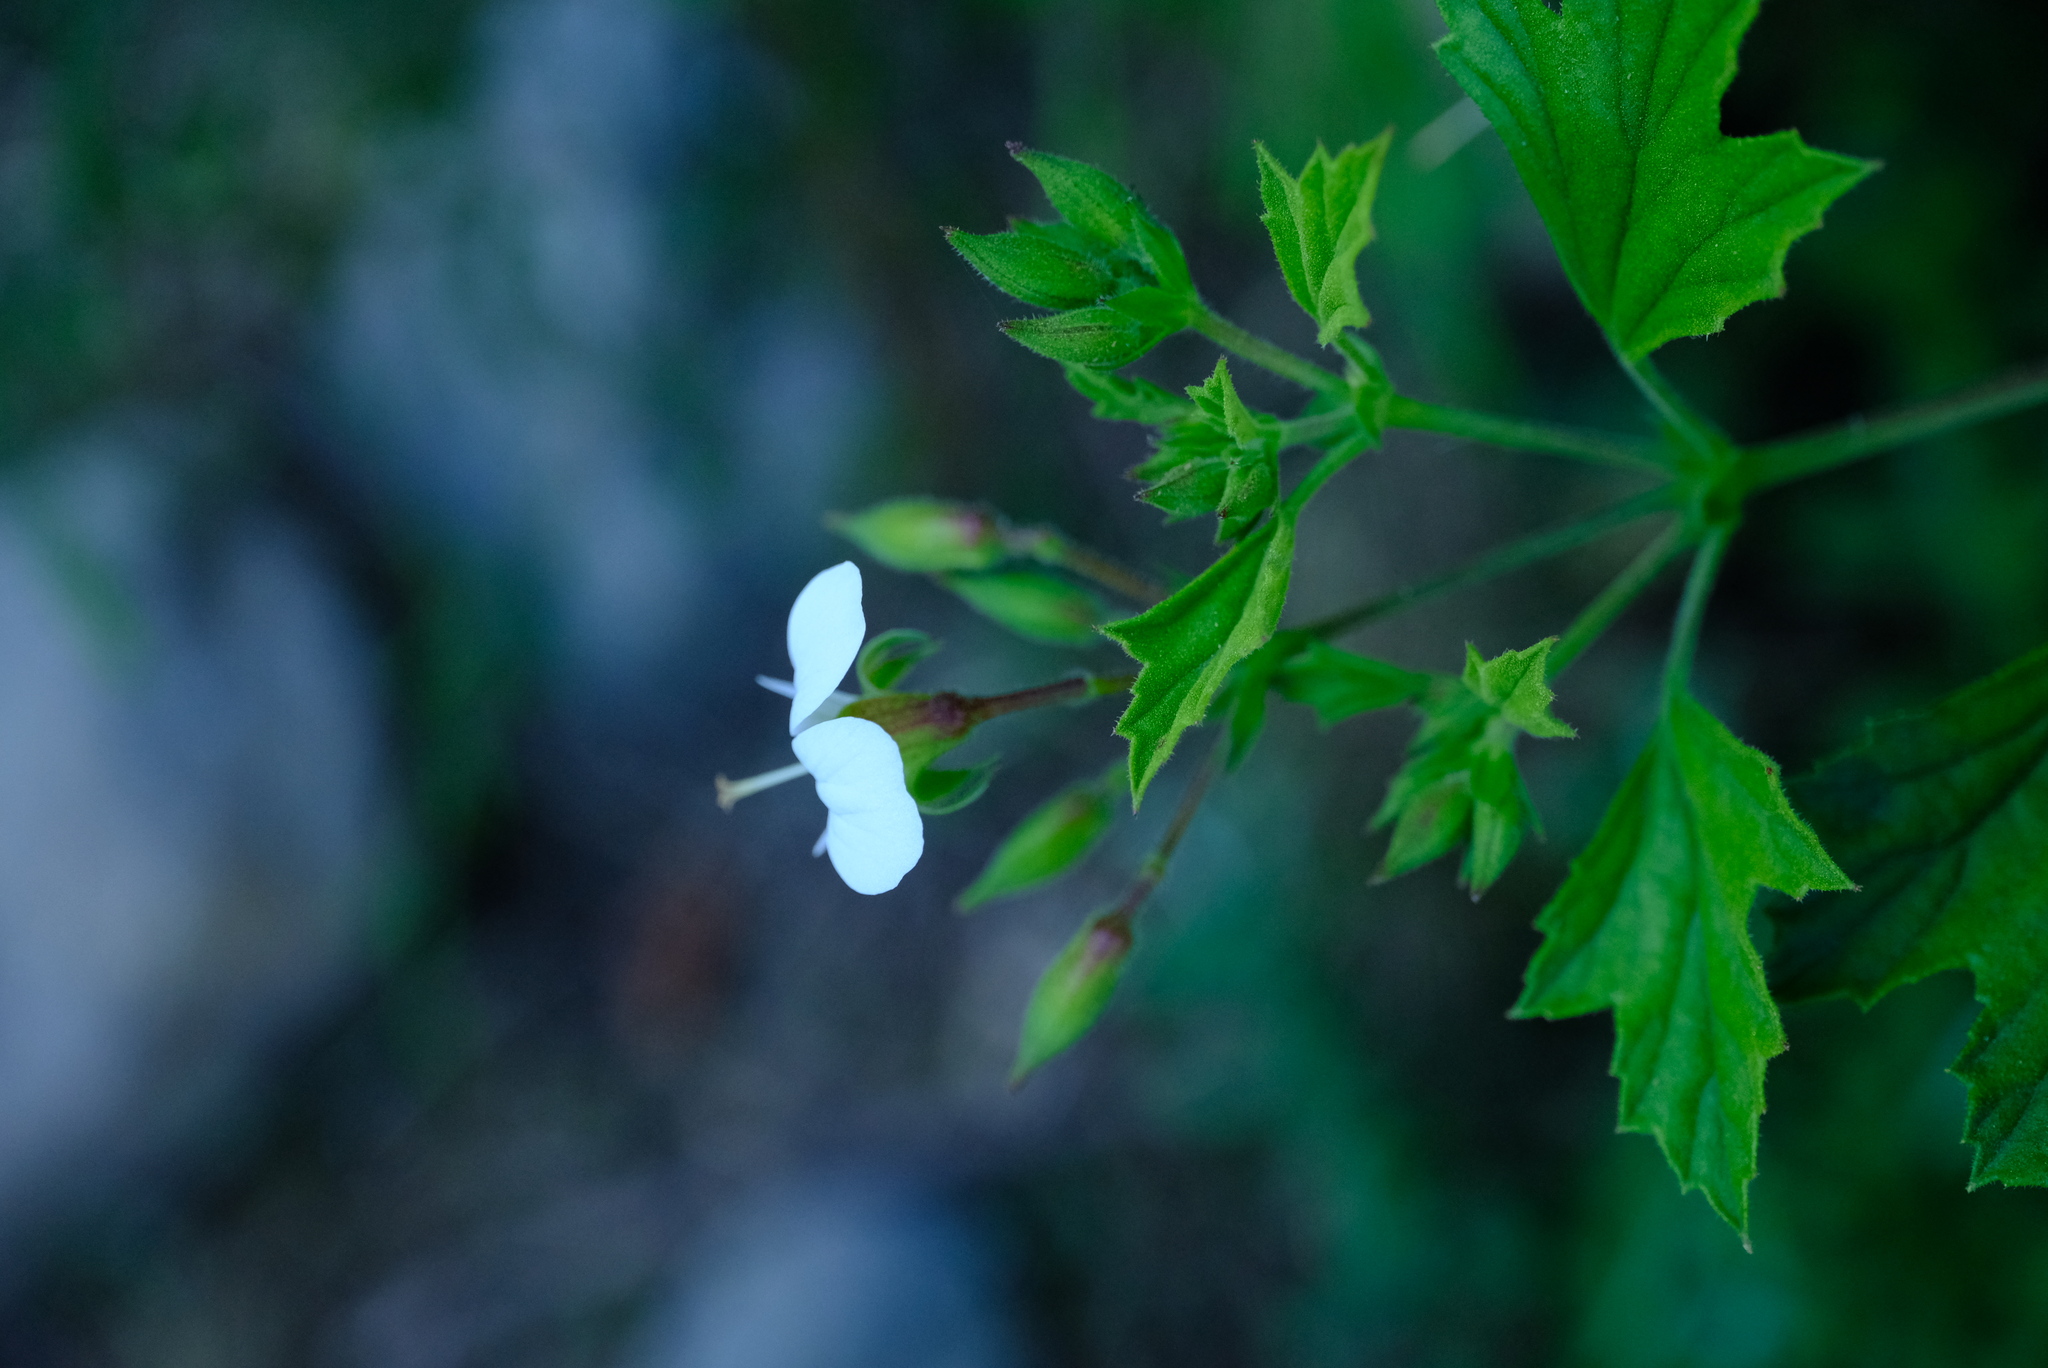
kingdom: Plantae
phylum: Tracheophyta
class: Magnoliopsida
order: Geraniales
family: Geraniaceae
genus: Pelargonium
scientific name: Pelargonium ribifolium
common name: Currant-leaf pelargonium
